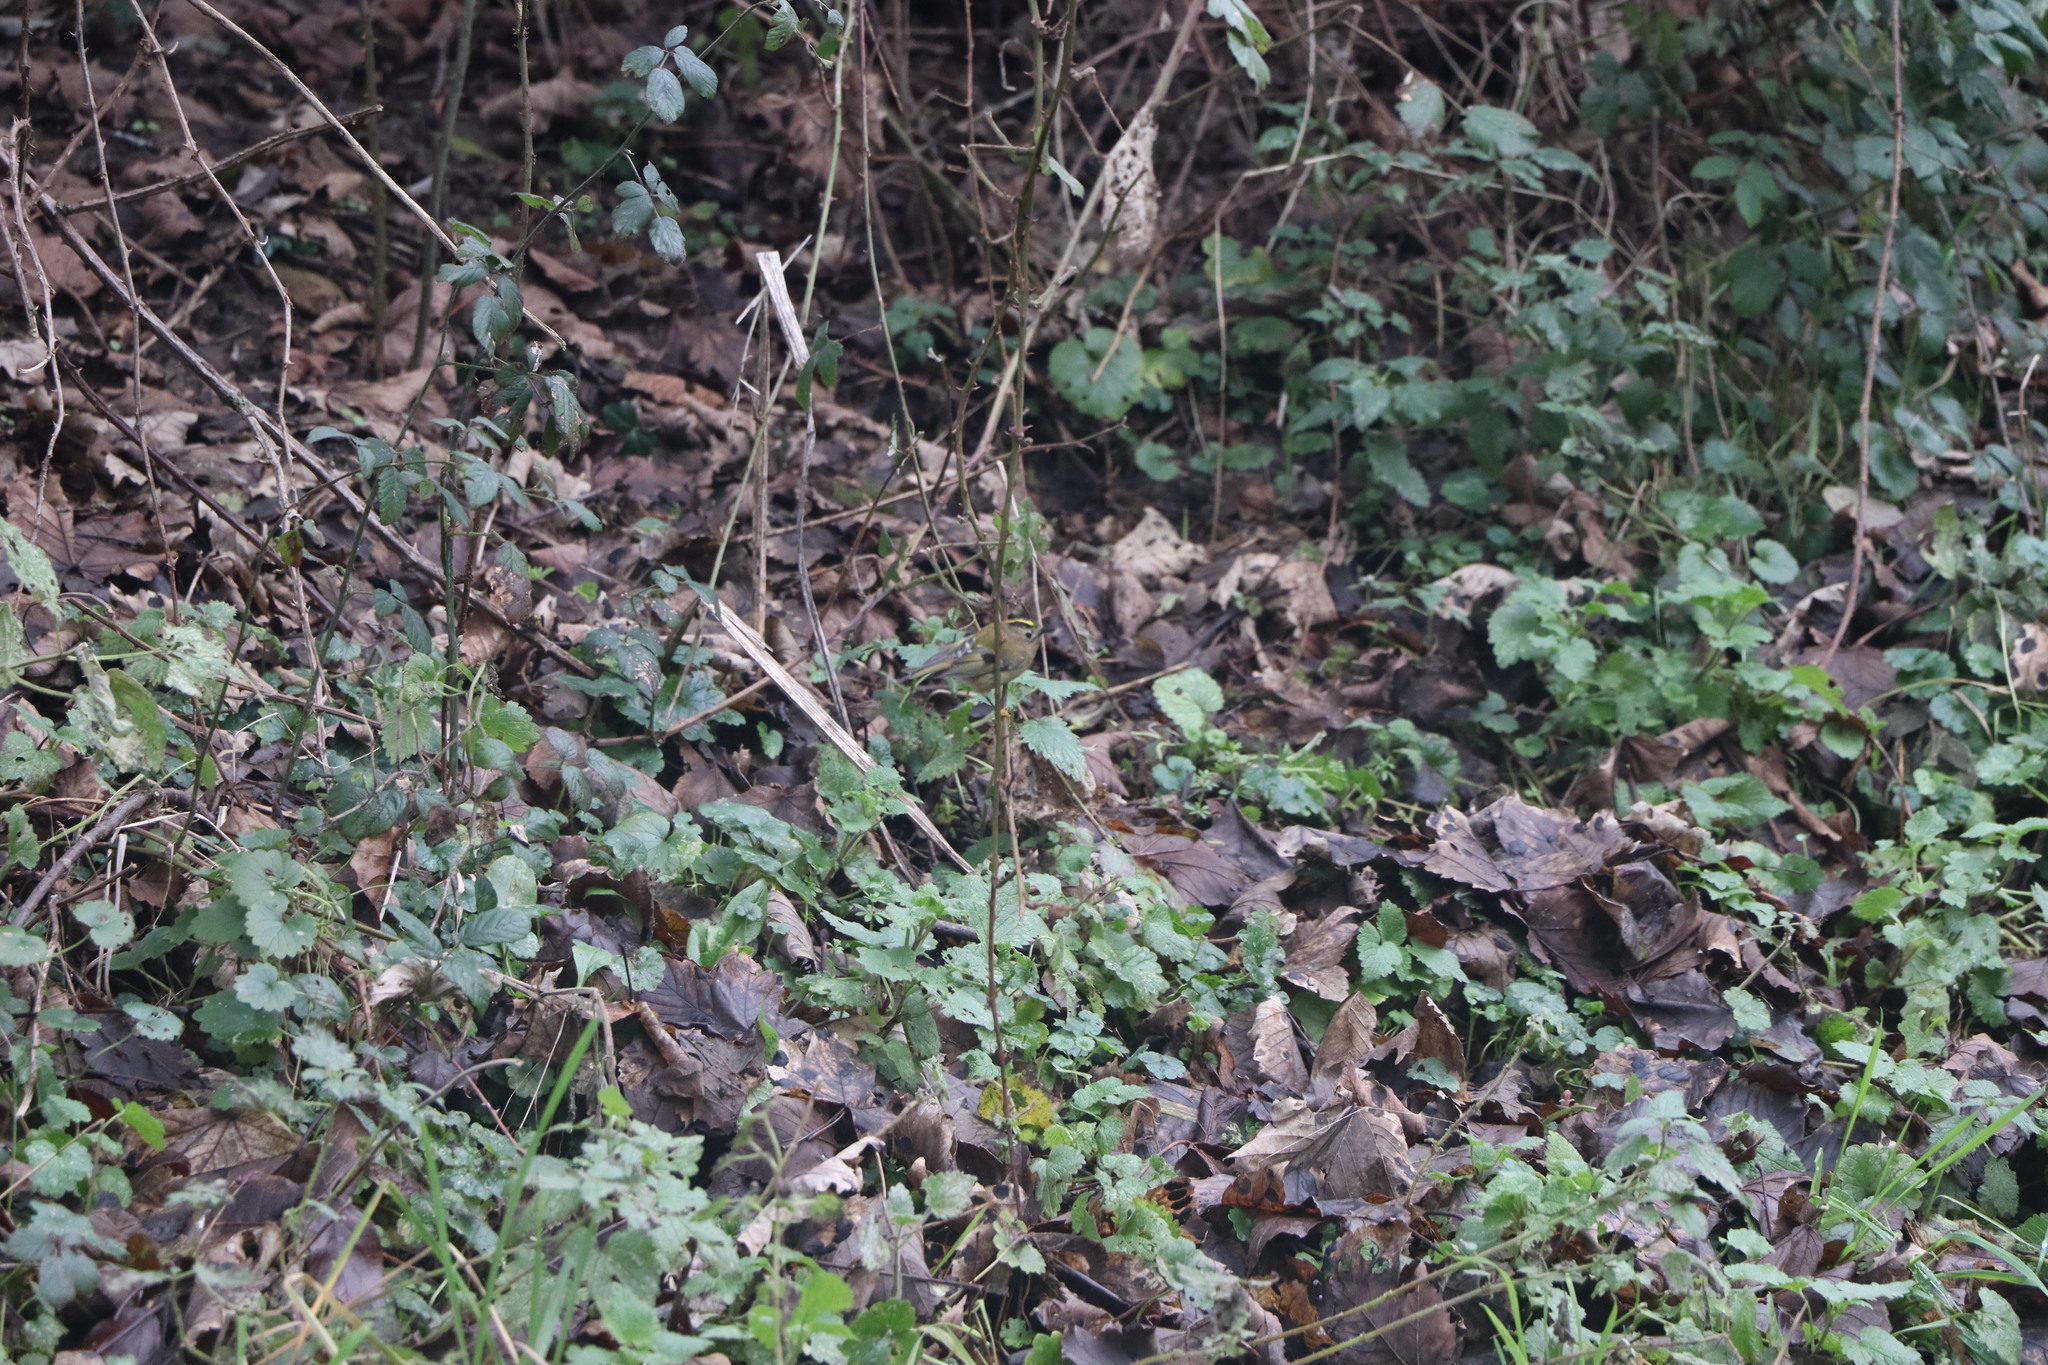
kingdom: Animalia
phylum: Chordata
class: Aves
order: Passeriformes
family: Regulidae
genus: Regulus
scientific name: Regulus regulus
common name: Goldcrest
